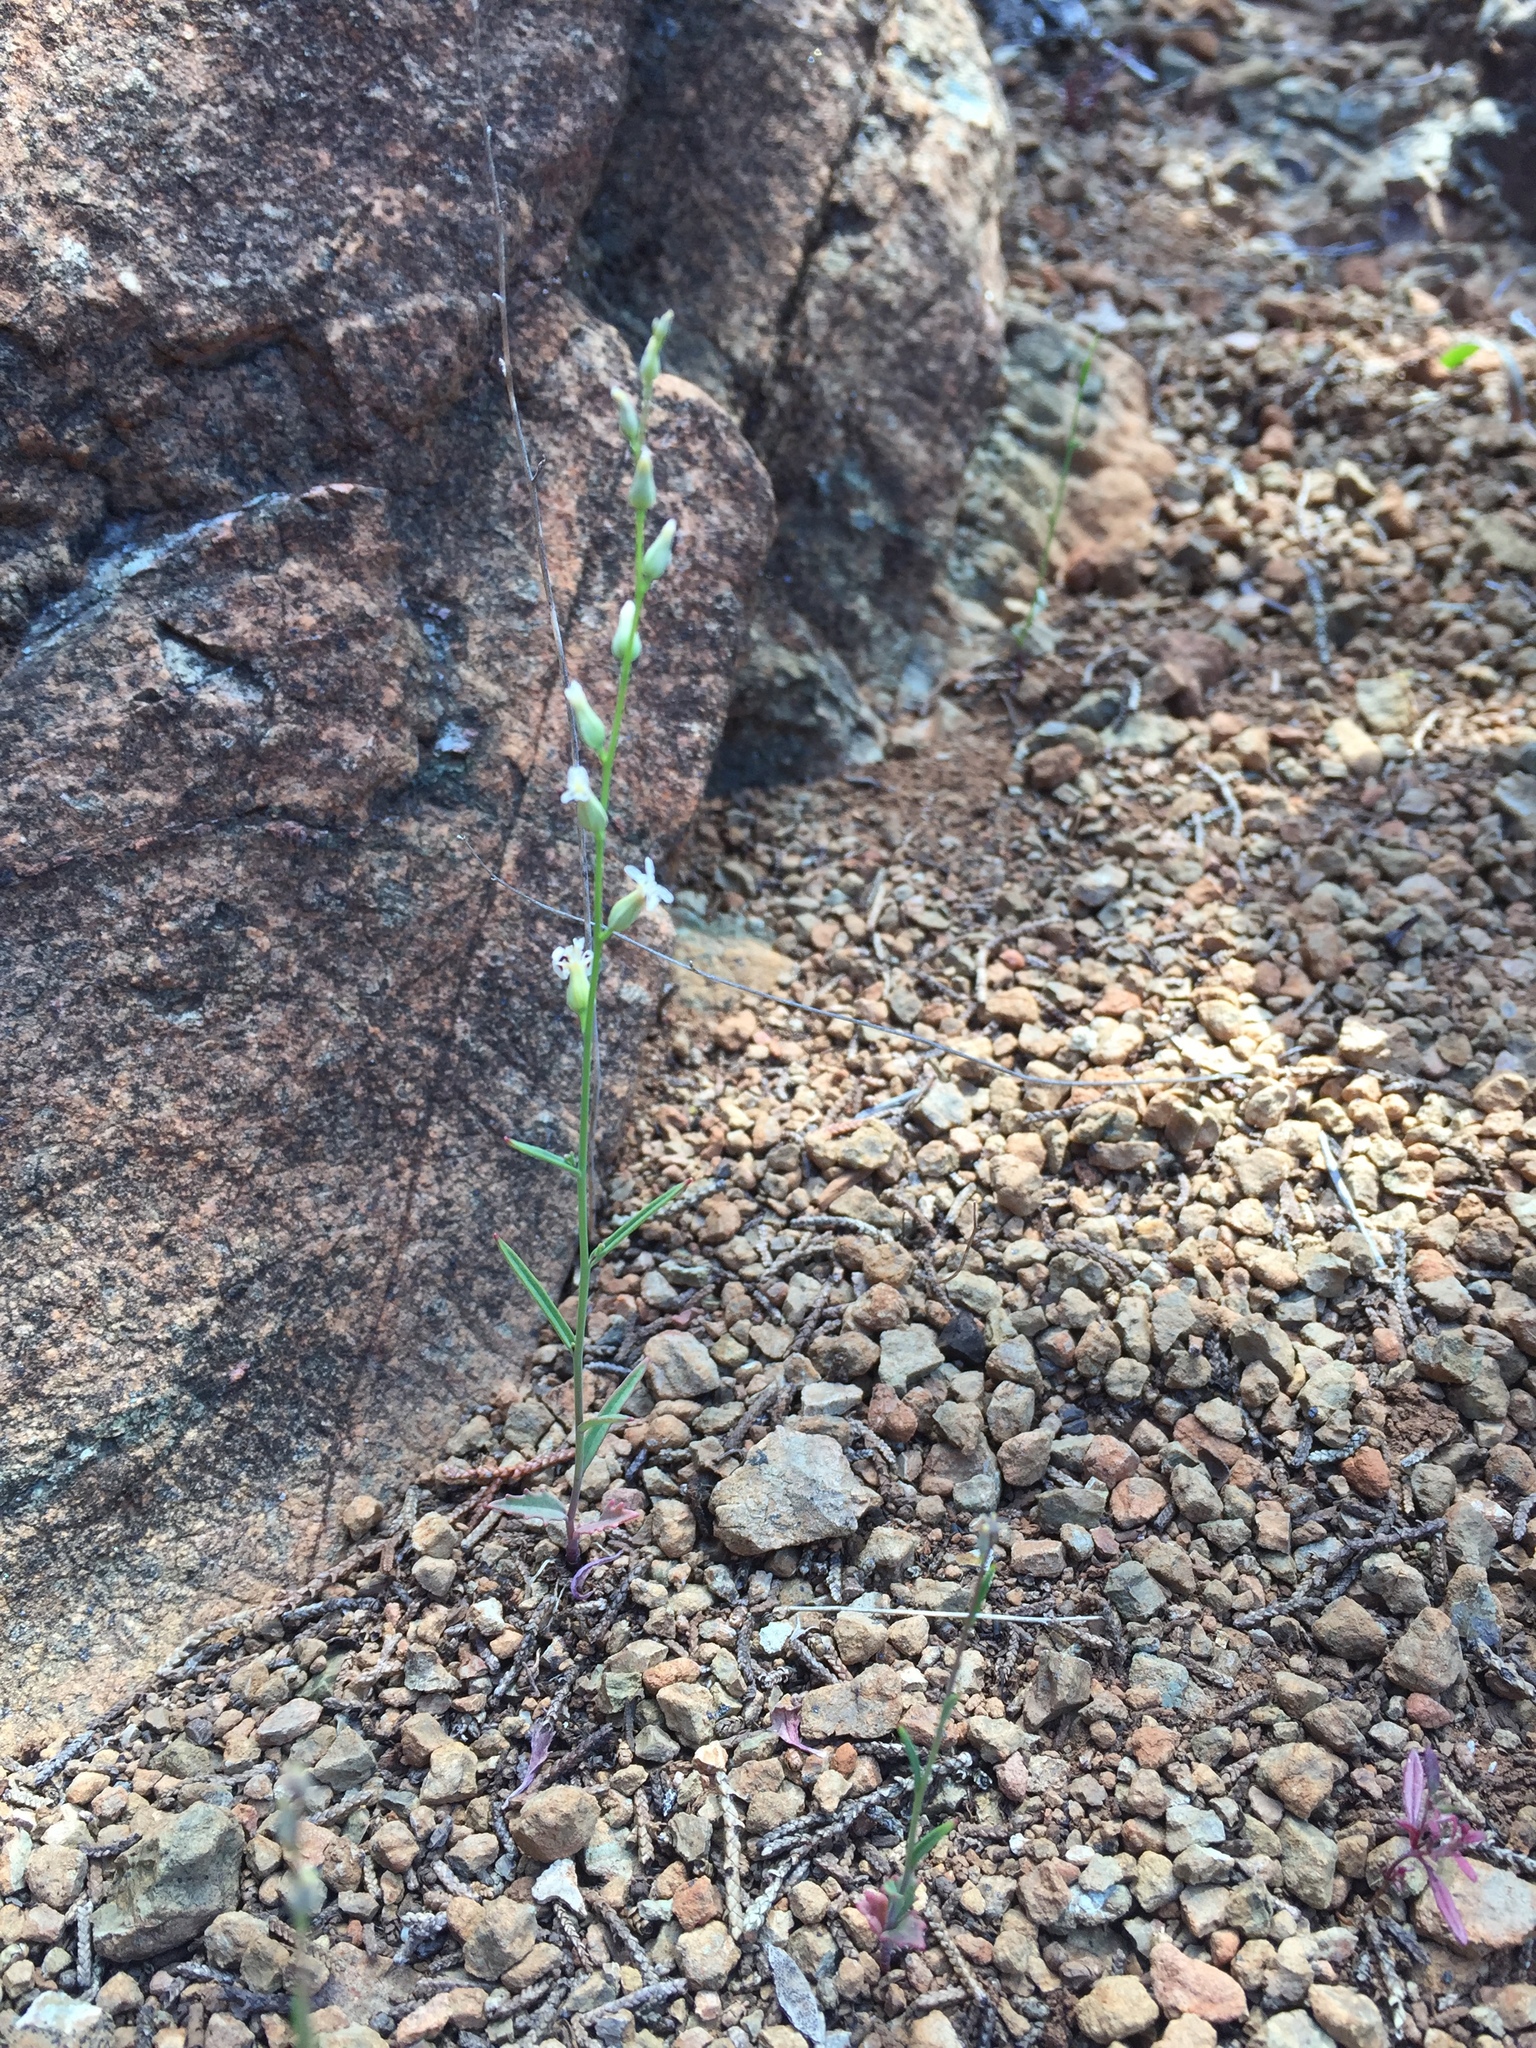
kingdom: Plantae
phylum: Tracheophyta
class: Magnoliopsida
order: Brassicales
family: Brassicaceae
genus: Streptanthus
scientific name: Streptanthus barbiger
